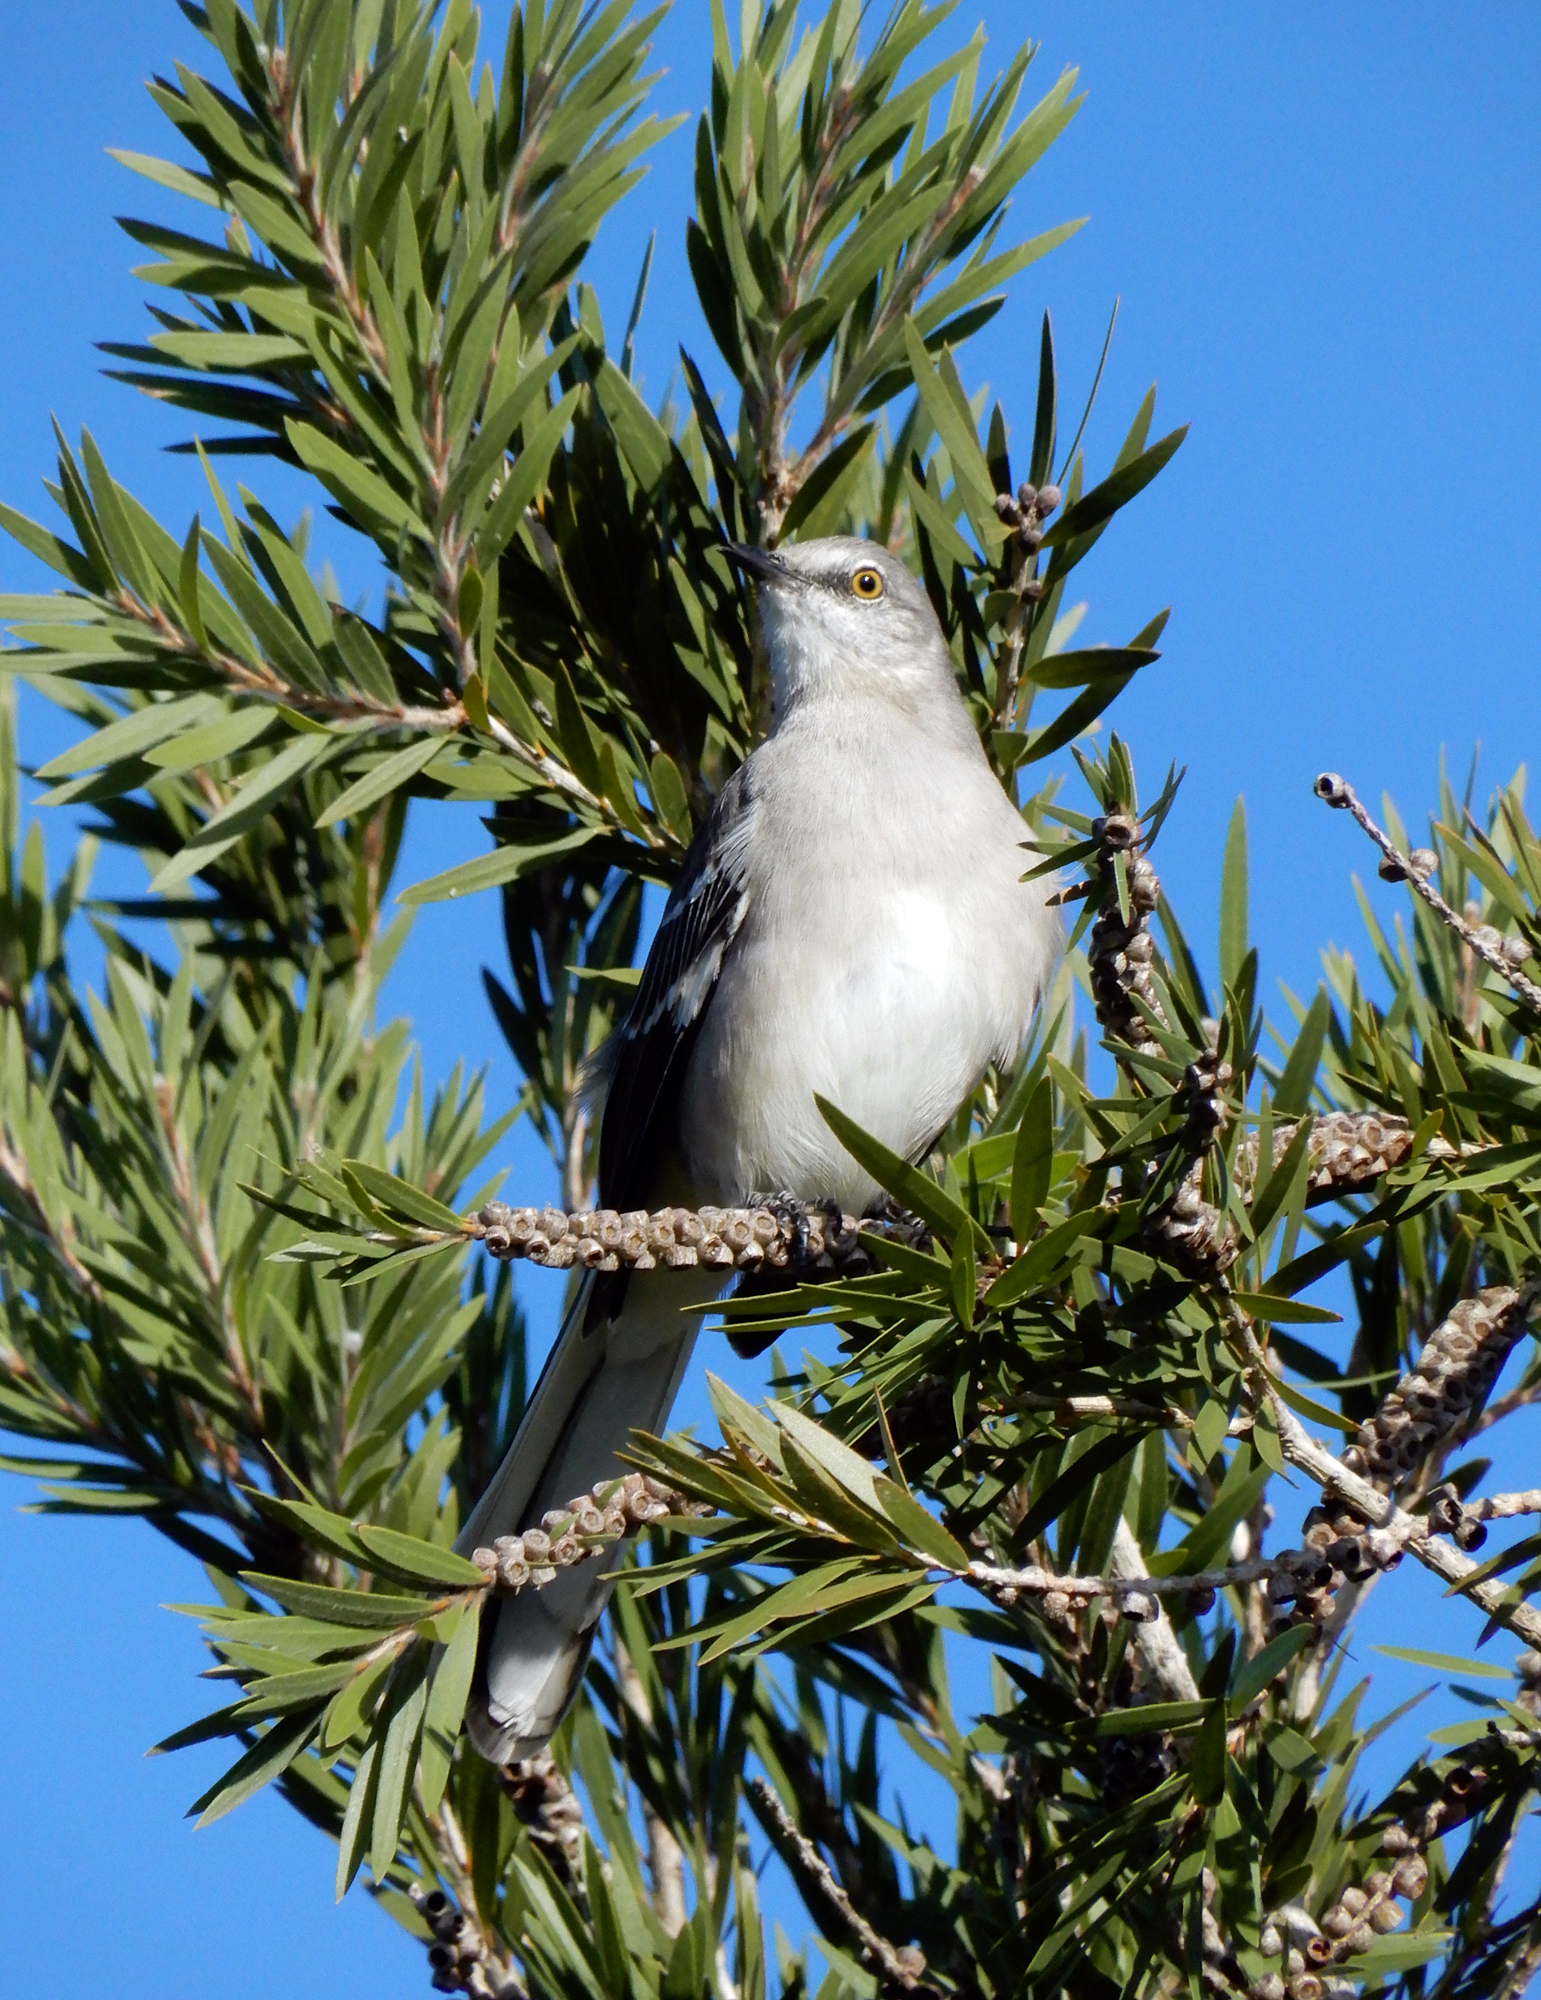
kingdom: Animalia
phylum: Chordata
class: Aves
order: Passeriformes
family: Mimidae
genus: Mimus
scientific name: Mimus polyglottos
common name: Northern mockingbird
